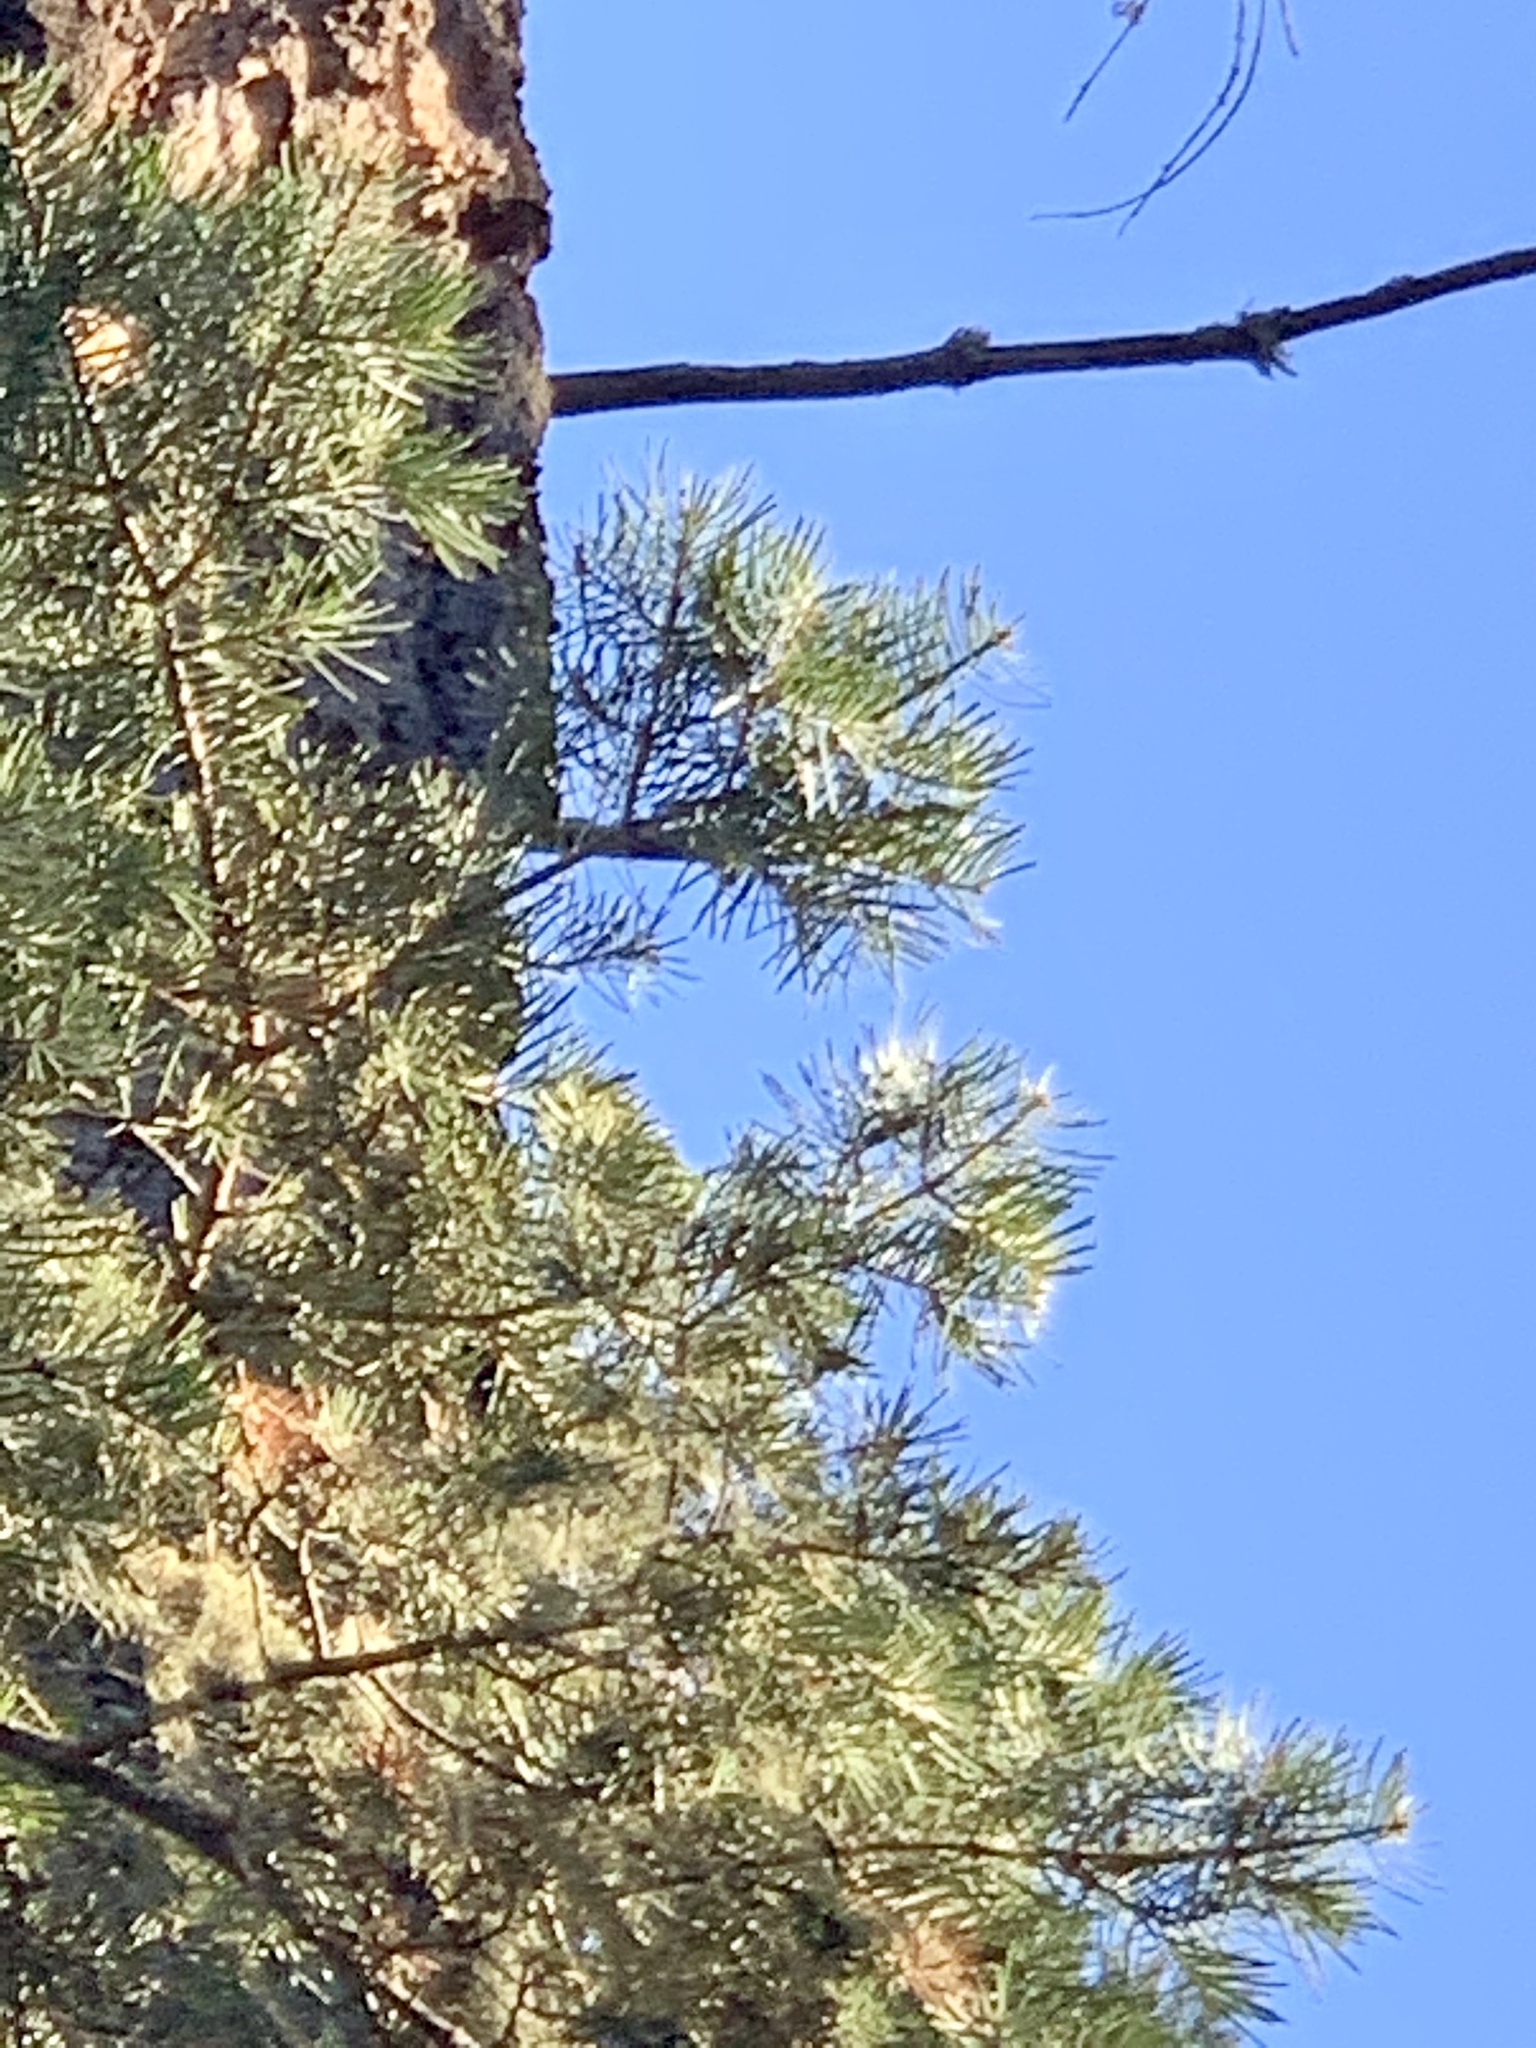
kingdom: Plantae
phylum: Tracheophyta
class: Pinopsida
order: Pinales
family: Pinaceae
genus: Abies
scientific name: Abies concolor
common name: Colorado fir
